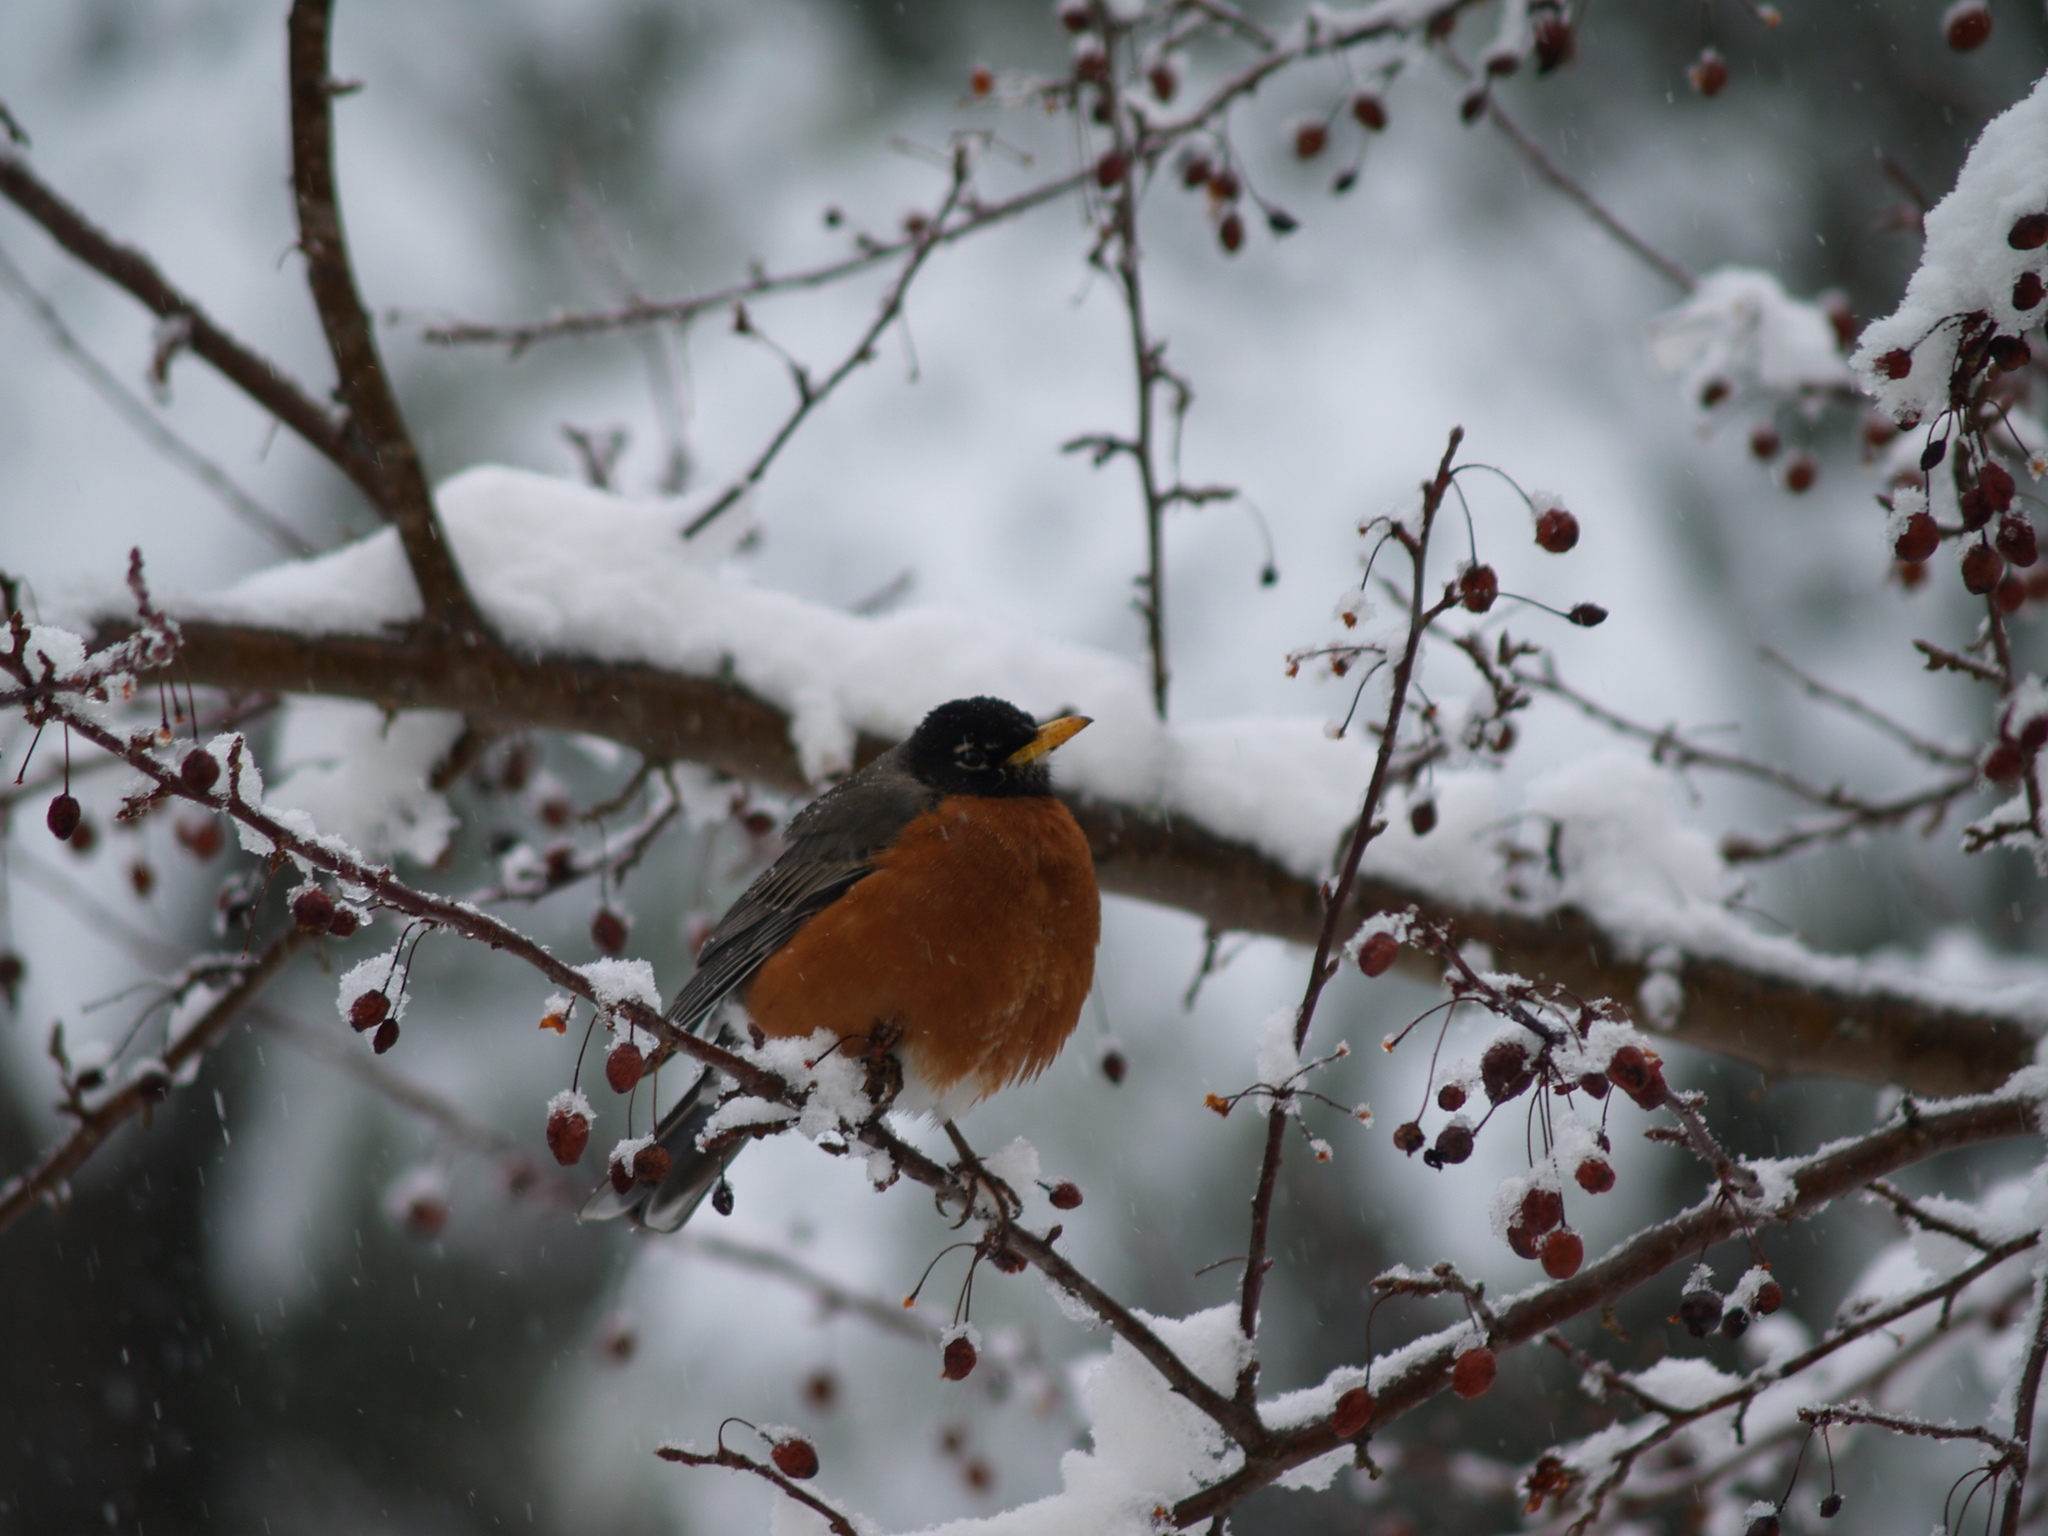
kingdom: Animalia
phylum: Chordata
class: Aves
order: Passeriformes
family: Turdidae
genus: Turdus
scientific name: Turdus migratorius
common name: American robin
